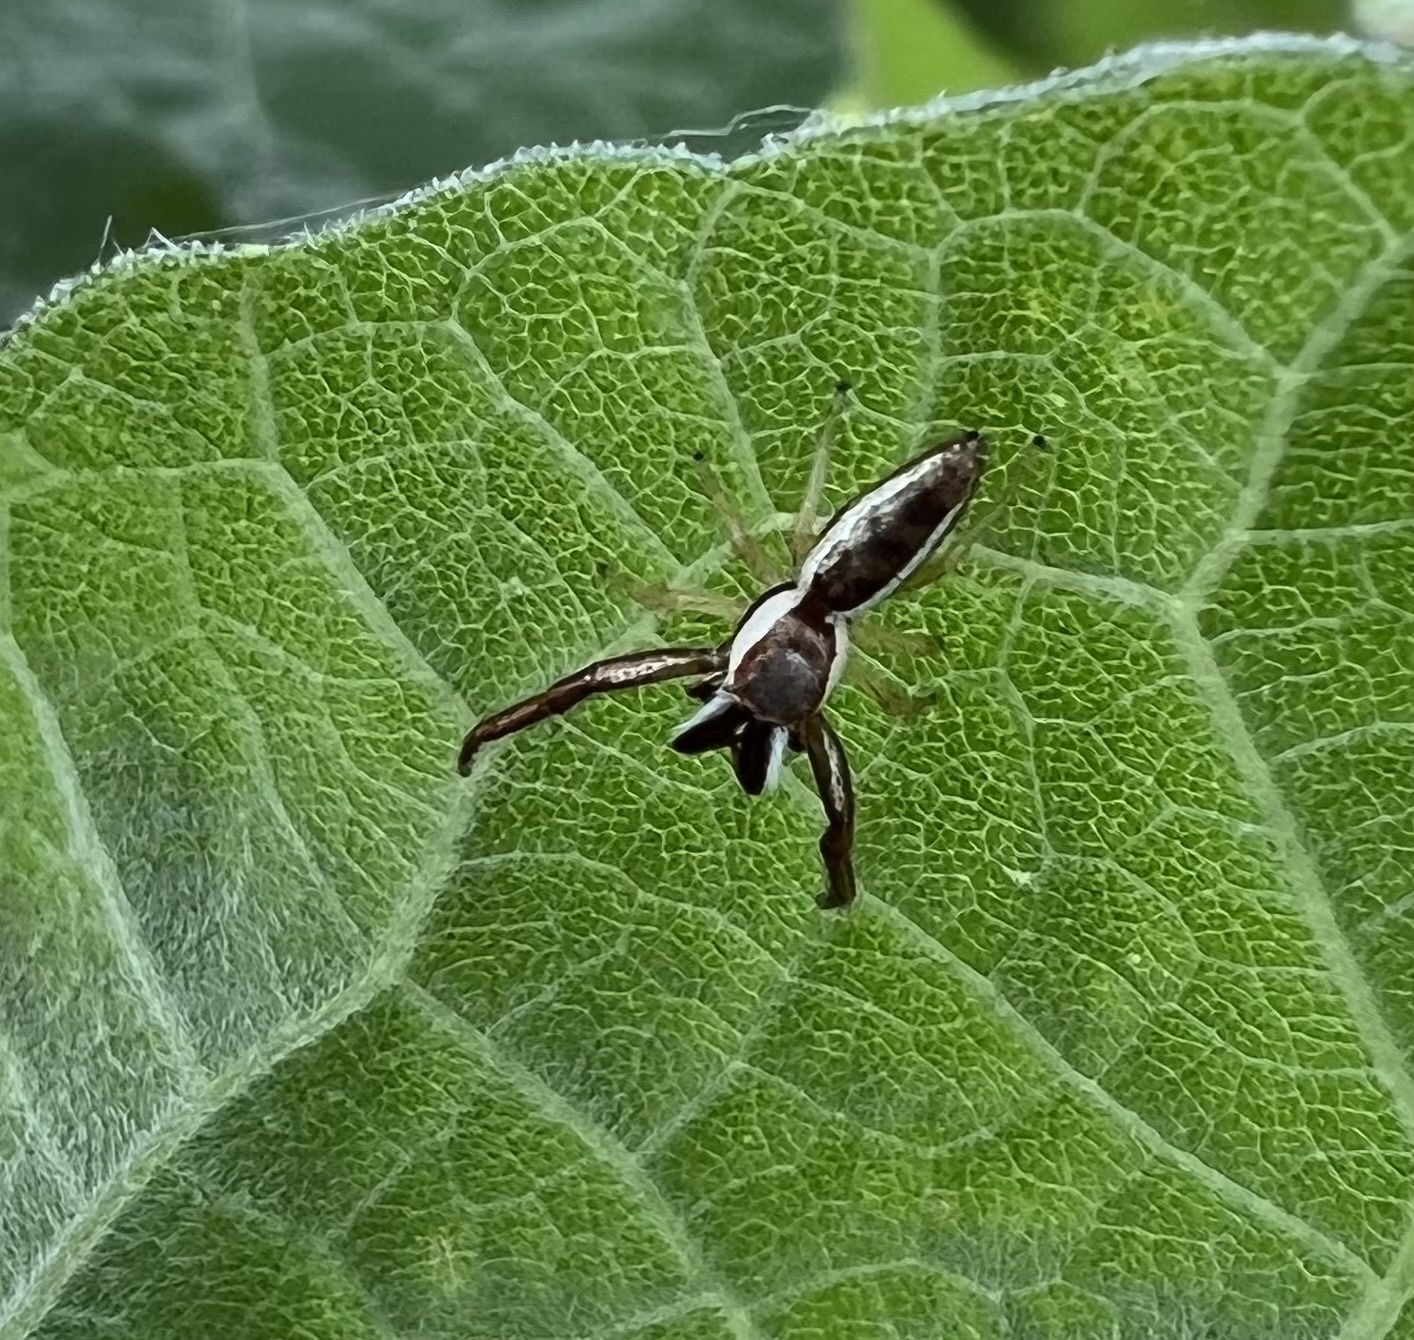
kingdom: Animalia
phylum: Arthropoda
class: Arachnida
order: Araneae
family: Salticidae
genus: Hentzia
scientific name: Hentzia palmarum
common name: Common hentz jumping spider
